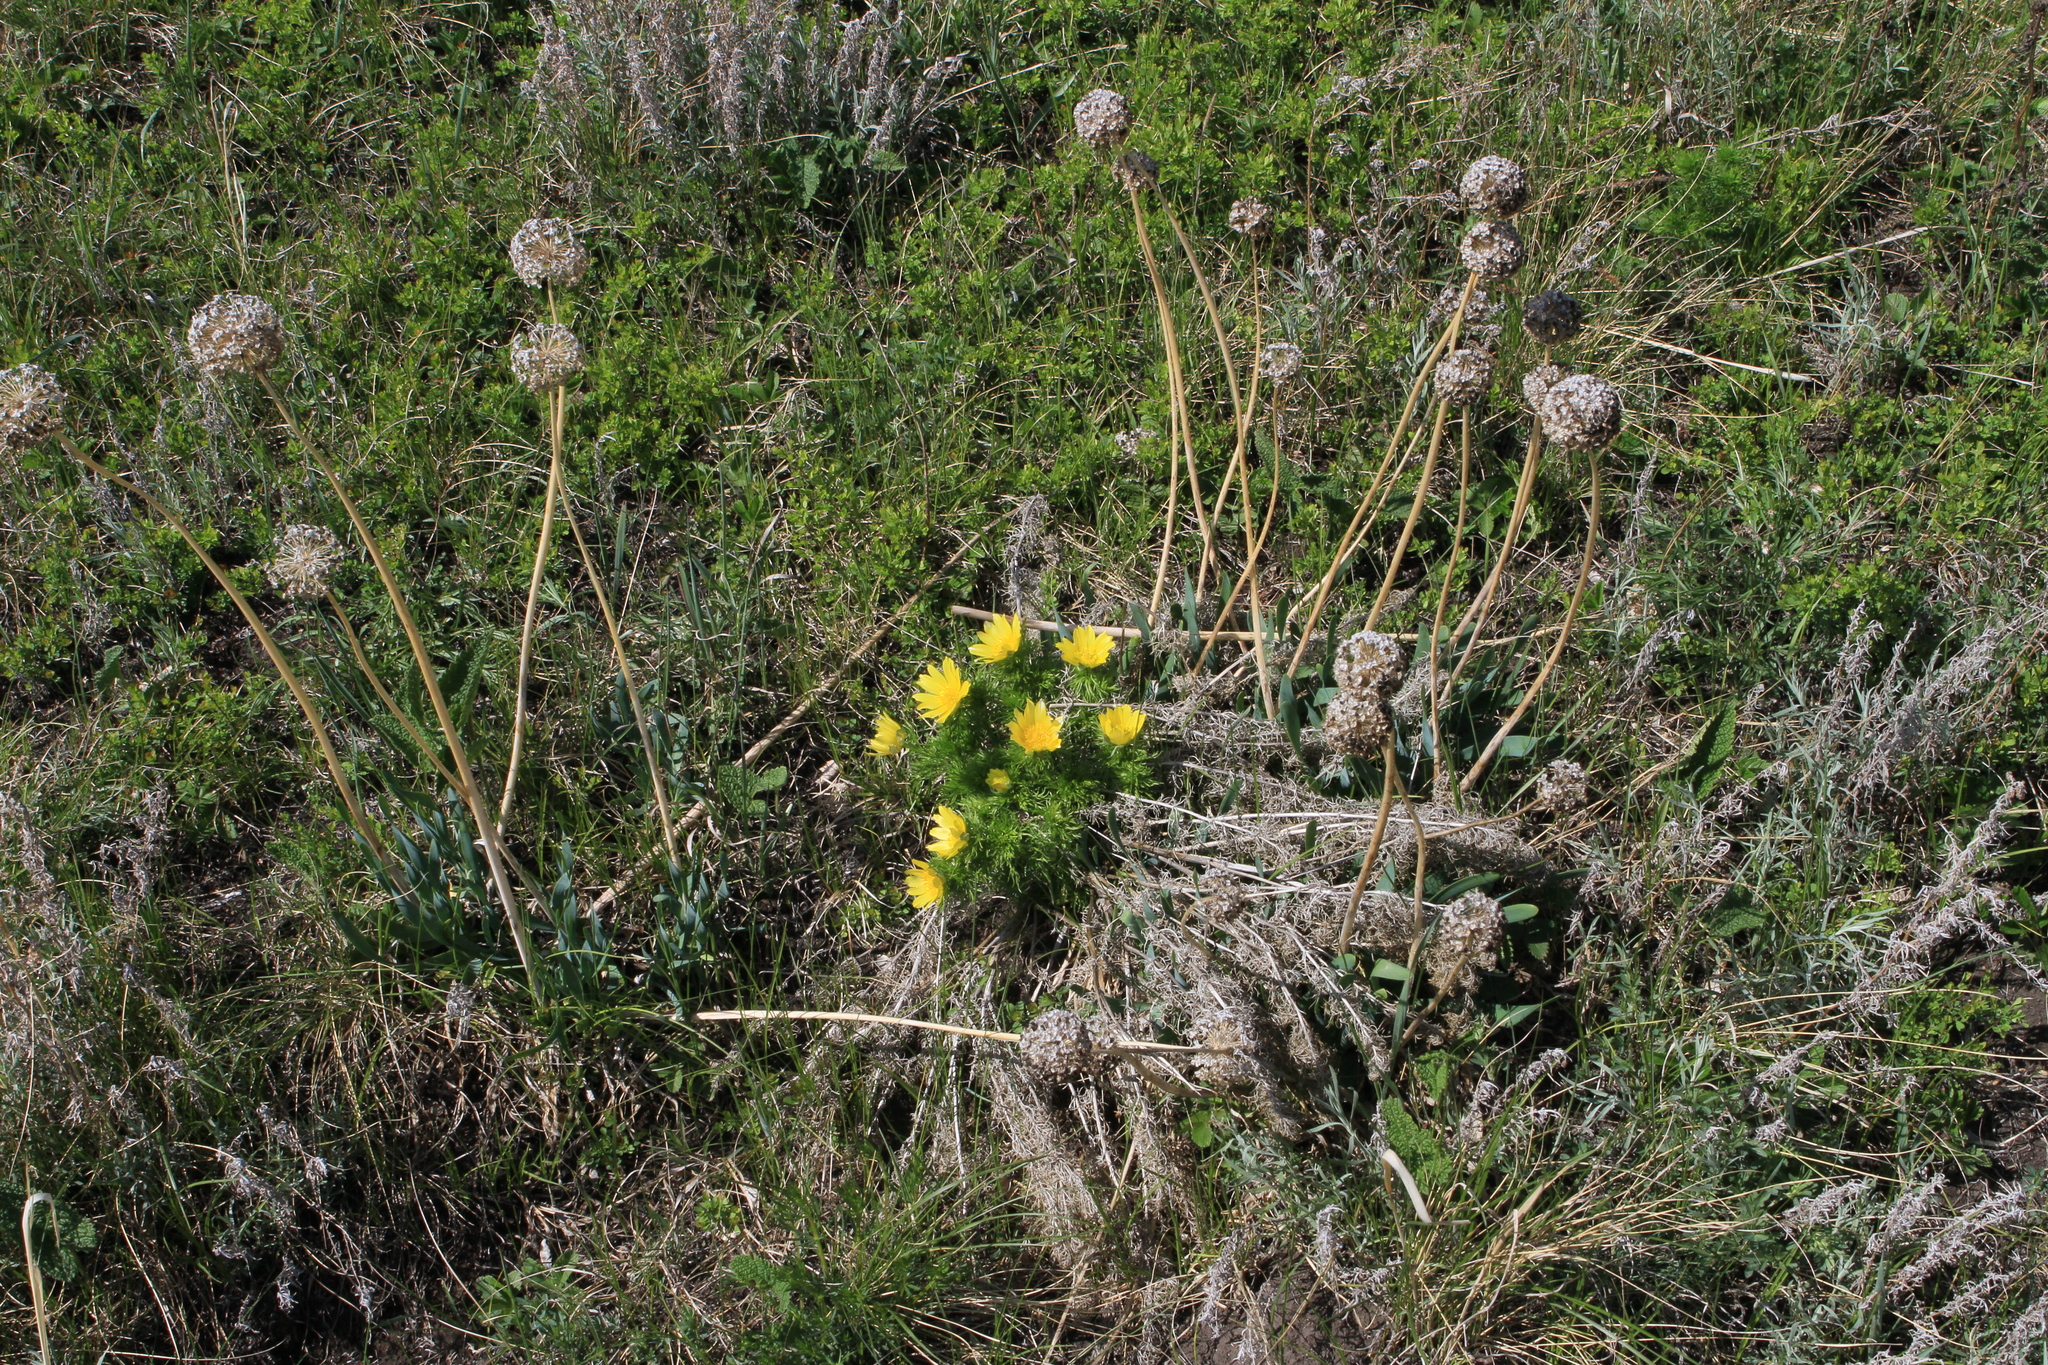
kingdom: Plantae
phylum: Tracheophyta
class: Magnoliopsida
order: Ranunculales
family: Ranunculaceae
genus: Adonis
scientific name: Adonis vernalis
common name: Yellow pheasants-eye
